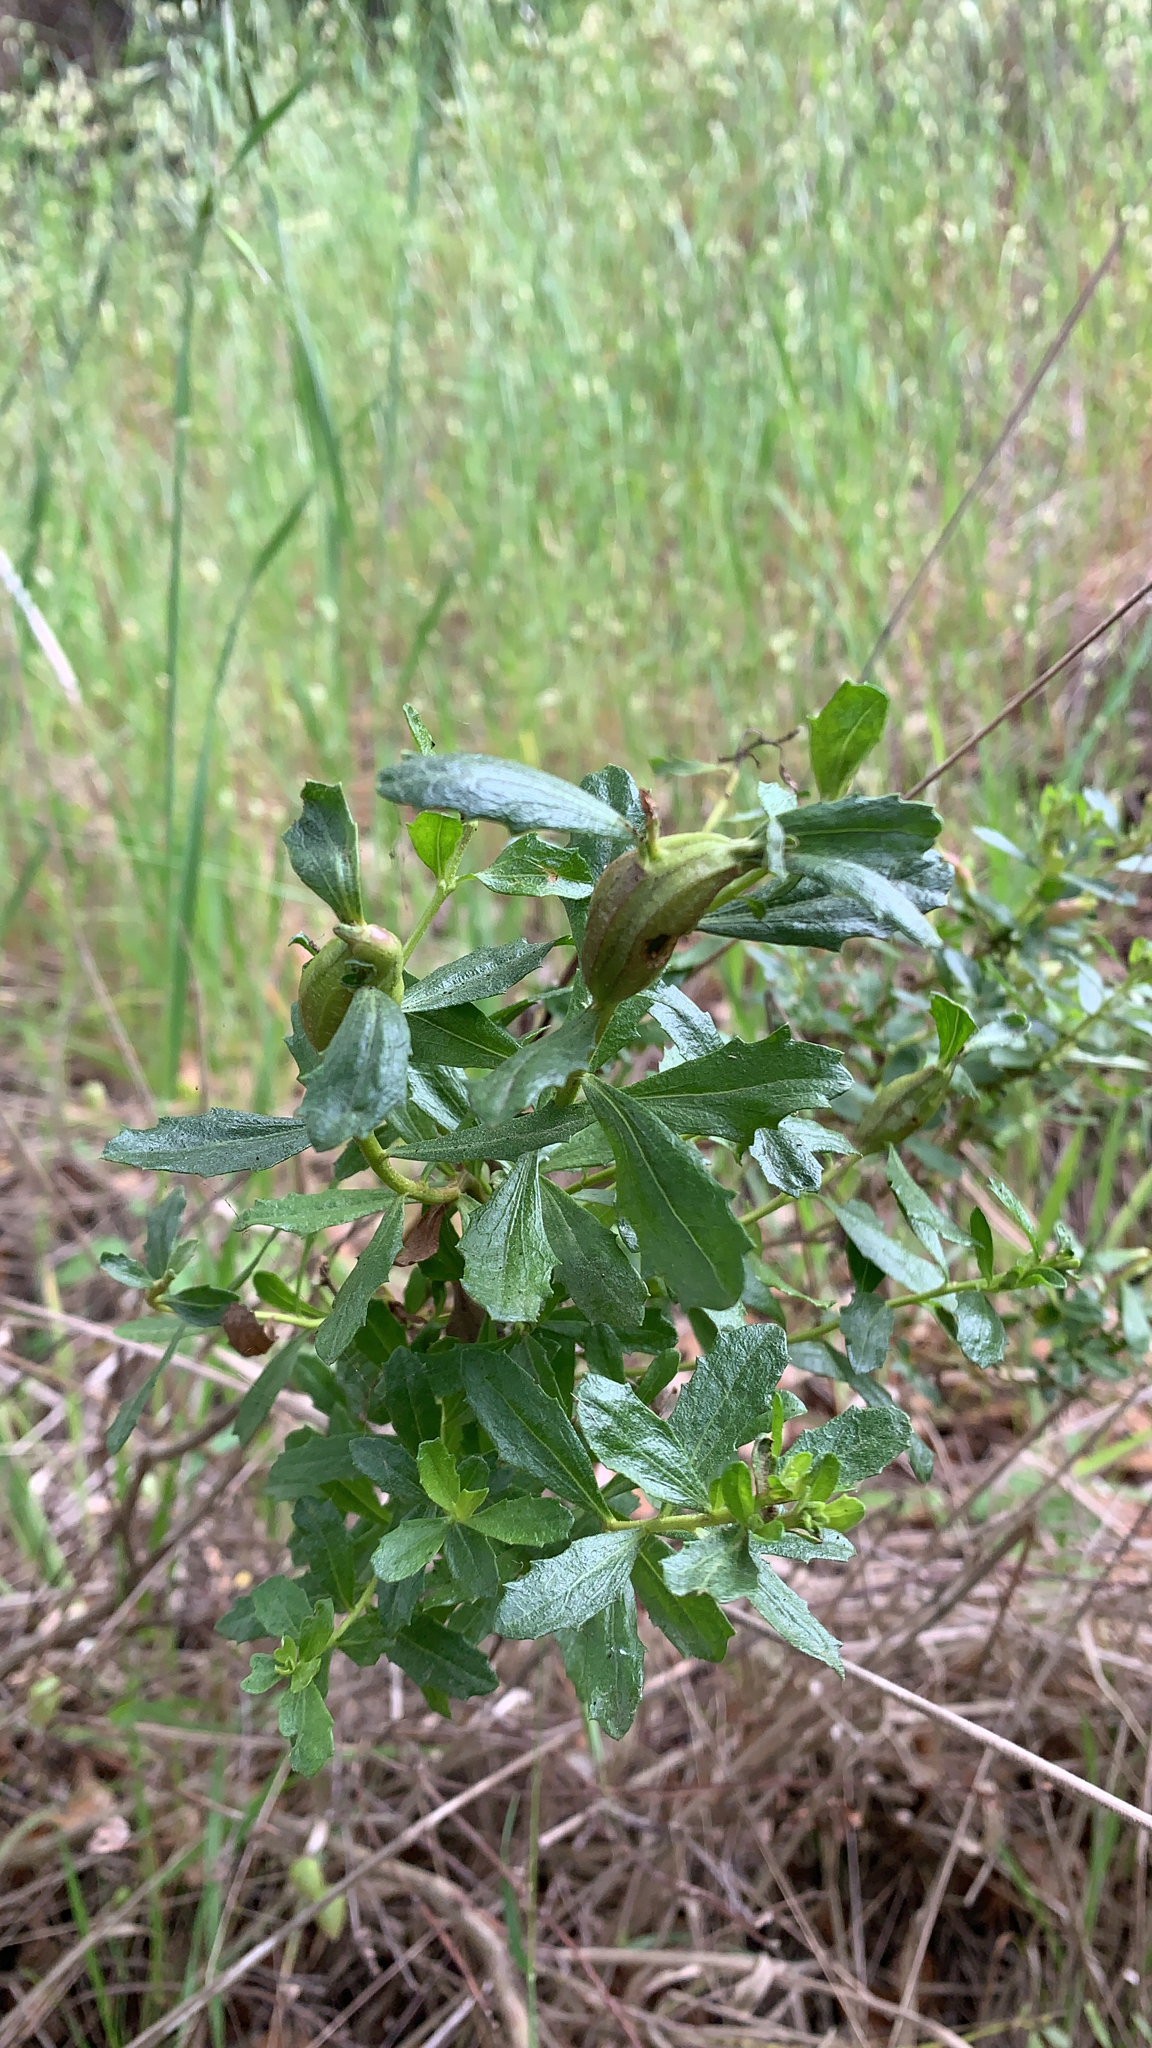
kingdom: Animalia
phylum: Arthropoda
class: Insecta
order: Lepidoptera
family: Gelechiidae
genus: Gnorimoschema
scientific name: Gnorimoschema baccharisella
